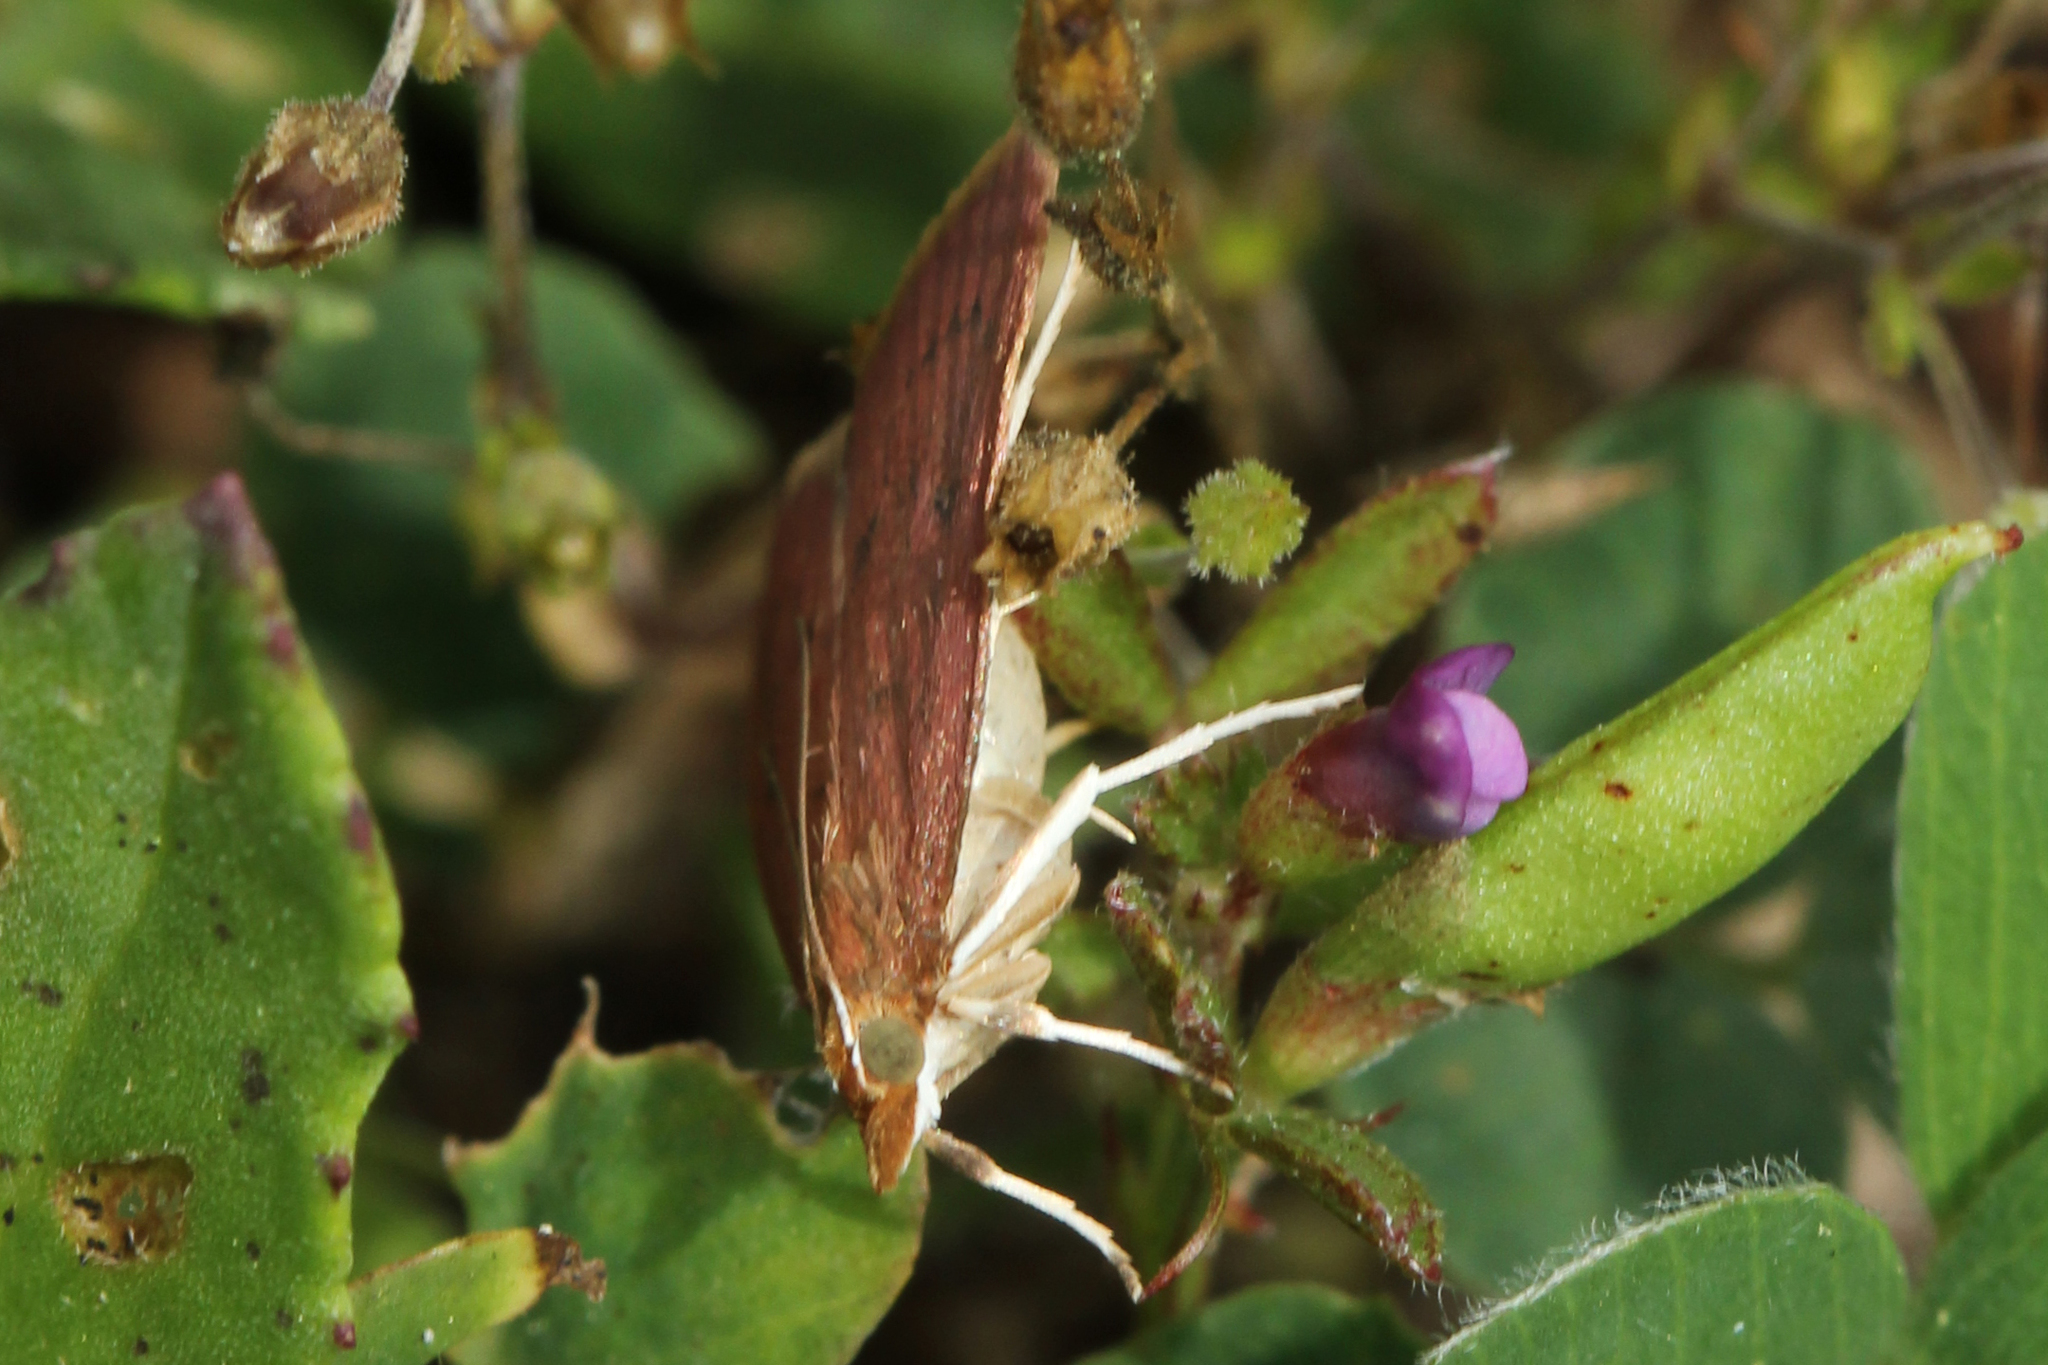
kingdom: Animalia
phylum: Arthropoda
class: Insecta
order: Lepidoptera
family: Crambidae
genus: Uresiphita
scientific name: Uresiphita reversalis
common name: Genista broom moth
